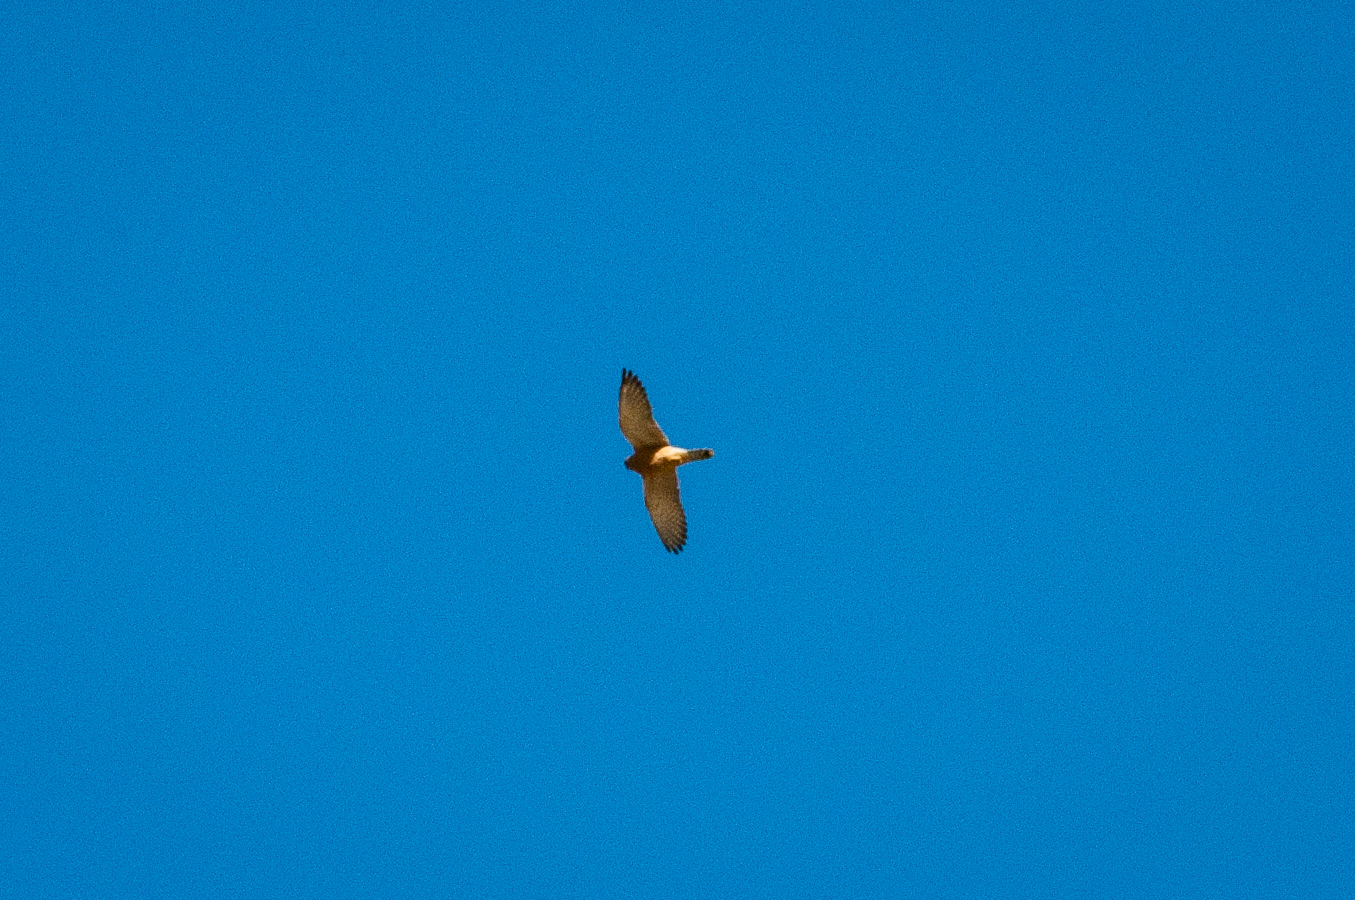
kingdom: Animalia
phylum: Chordata
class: Aves
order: Falconiformes
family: Falconidae
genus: Falco
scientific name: Falco rupicolus
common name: Rock kestrel
